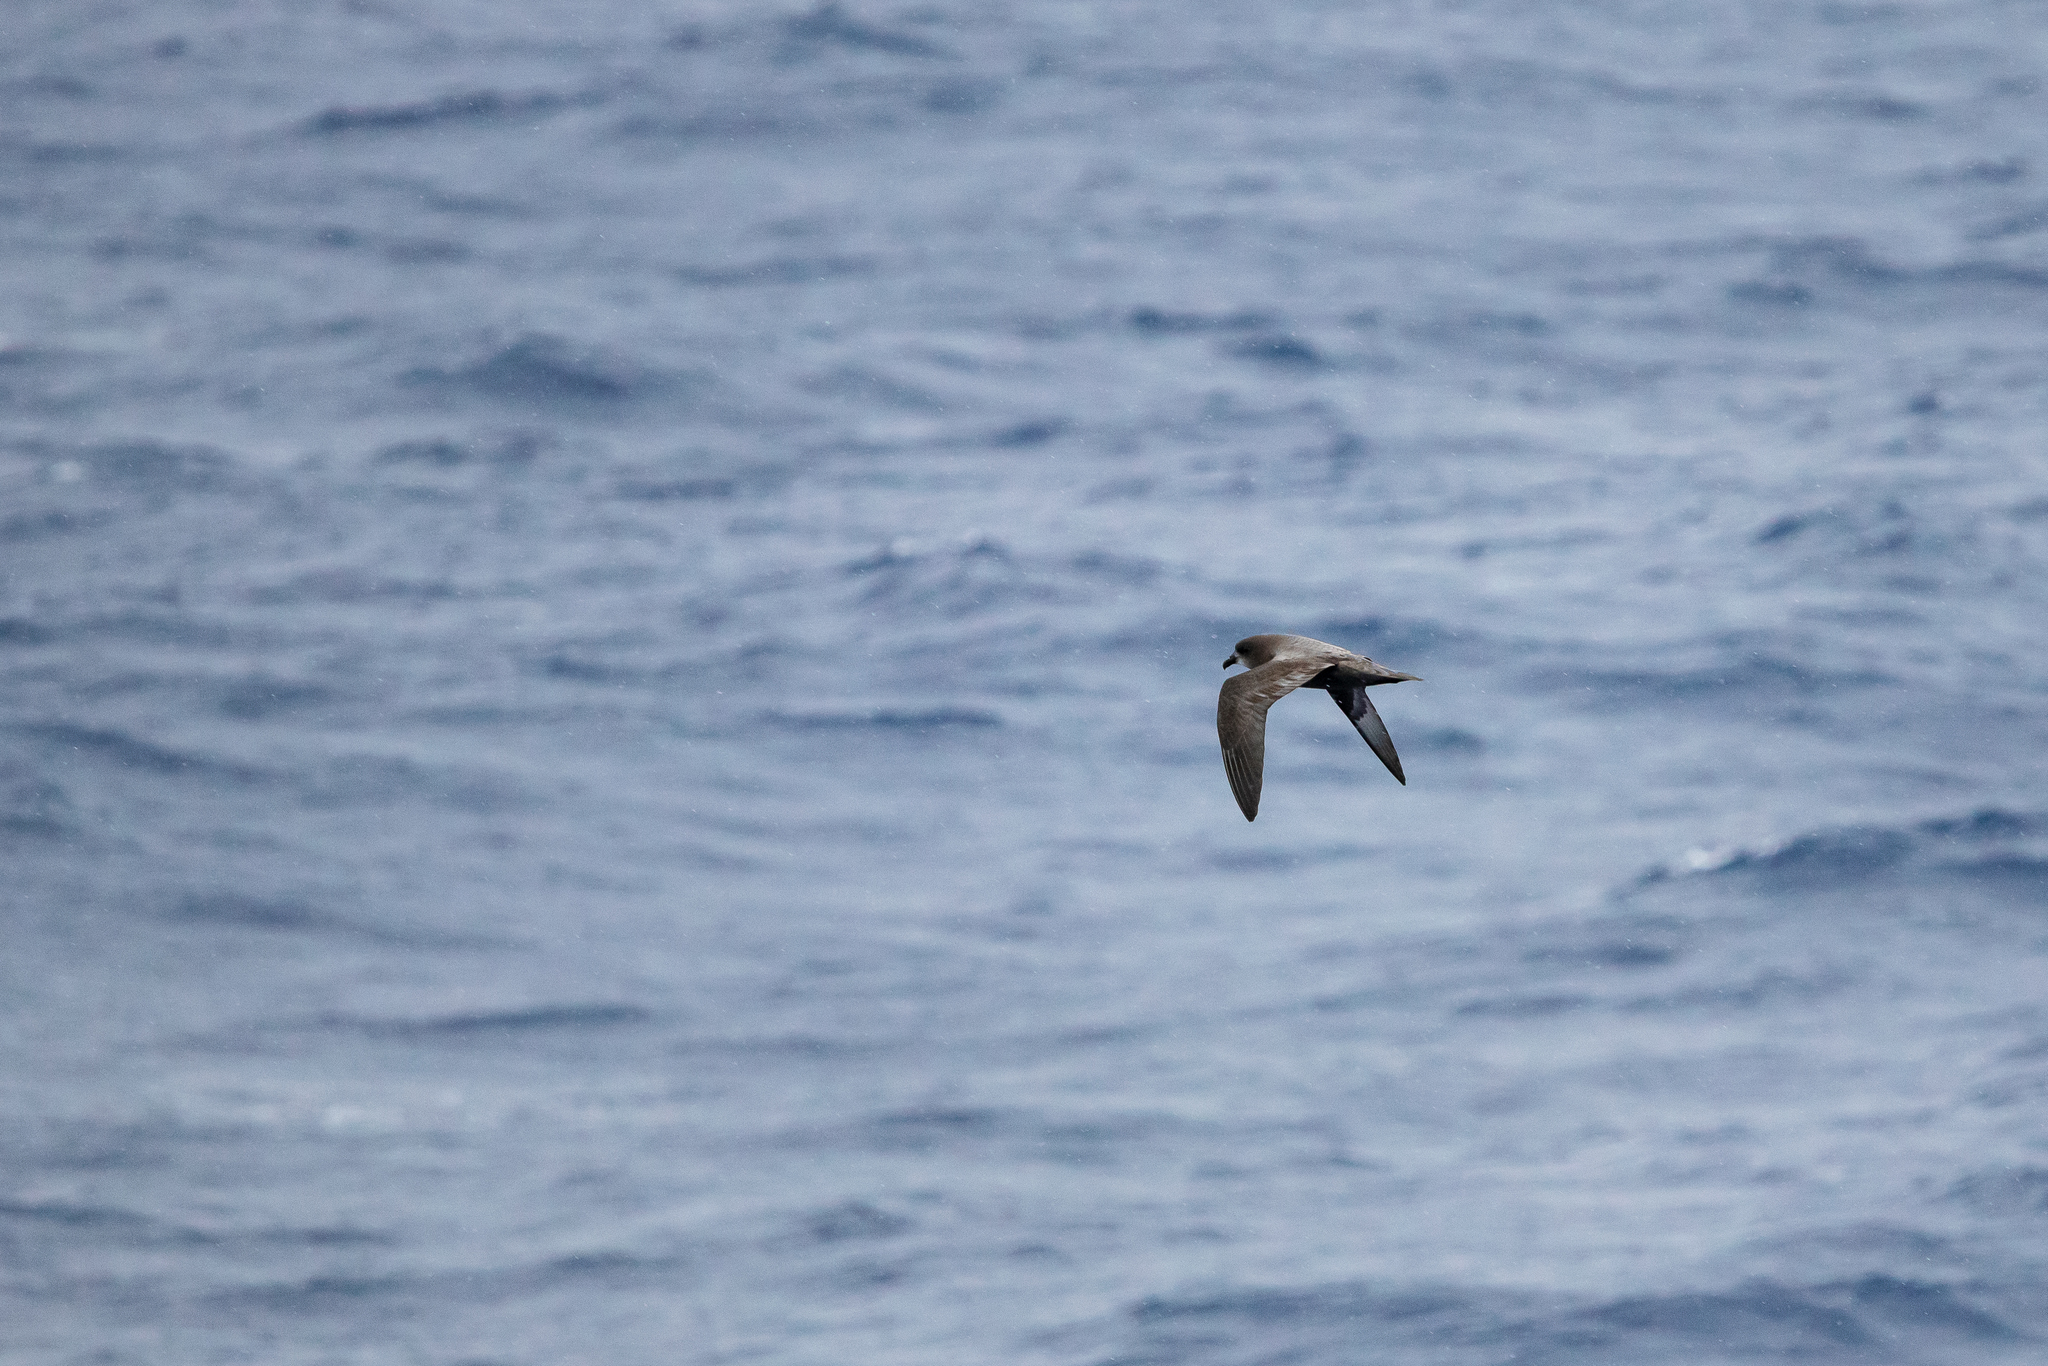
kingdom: Animalia
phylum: Chordata
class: Aves
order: Procellariiformes
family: Procellariidae
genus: Pterodroma
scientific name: Pterodroma ultima
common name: Murphy's petrel
